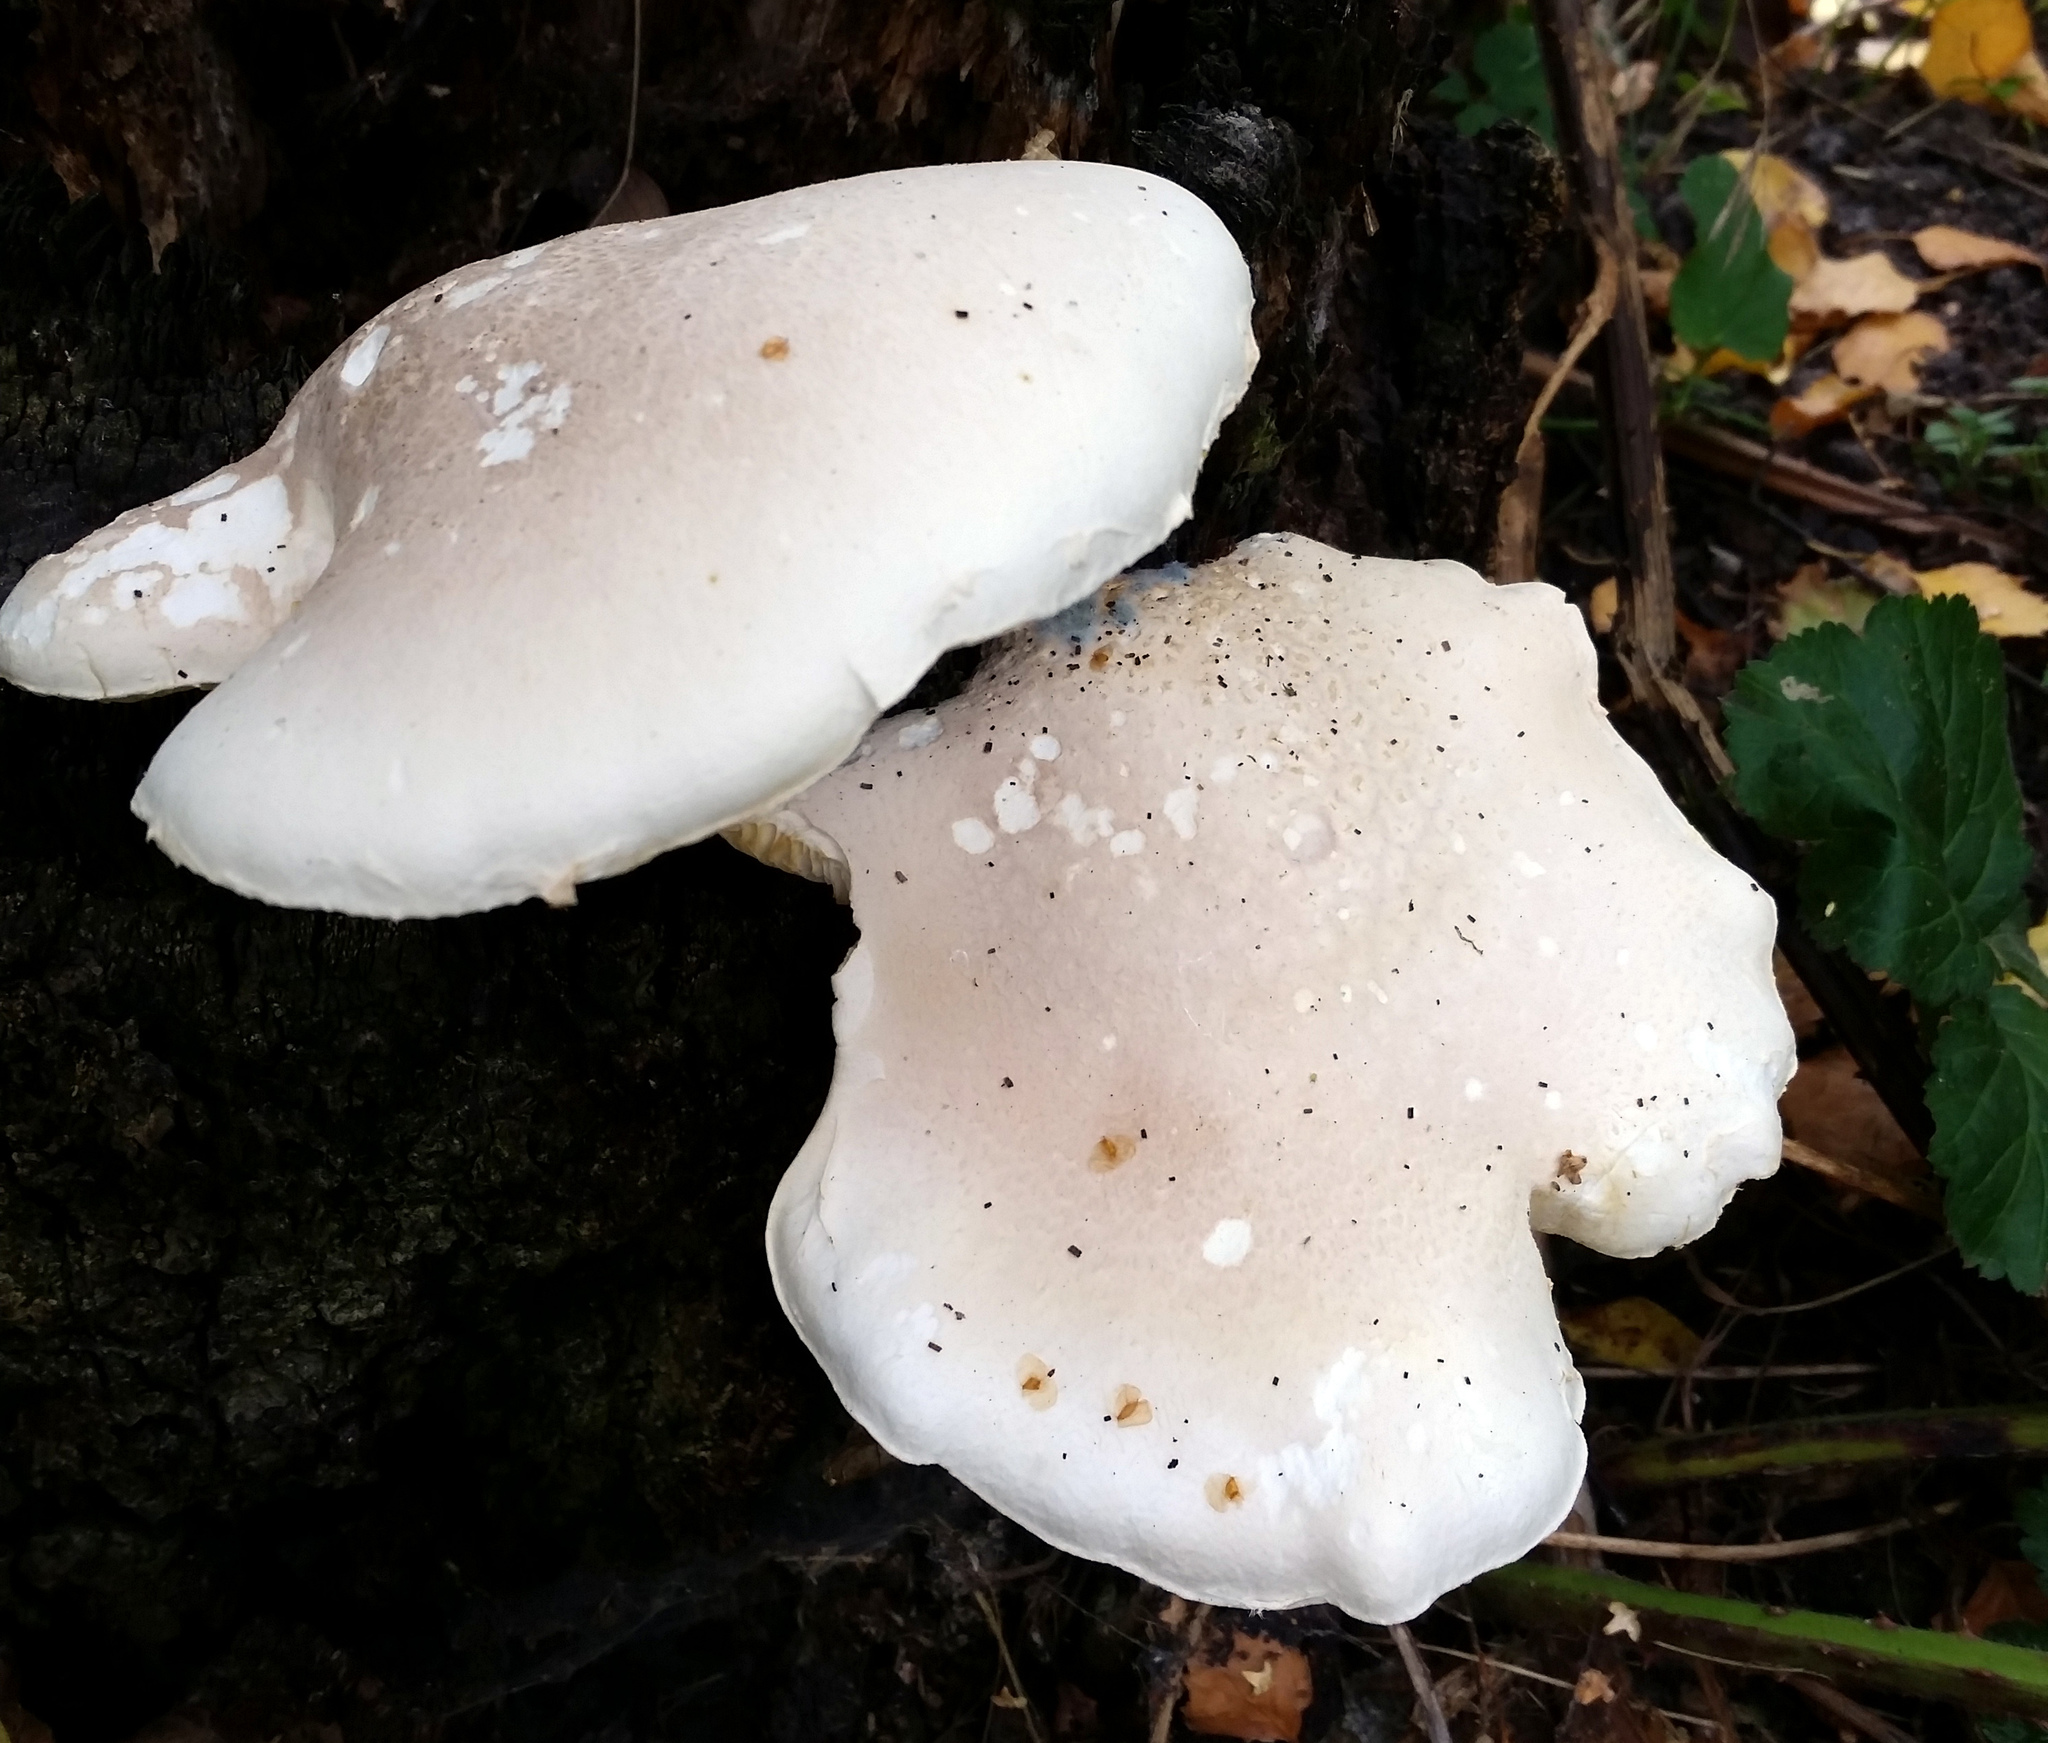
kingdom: Fungi
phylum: Basidiomycota
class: Agaricomycetes
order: Agaricales
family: Pleurotaceae
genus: Pleurotus
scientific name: Pleurotus dryinus
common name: Veiled oyster
